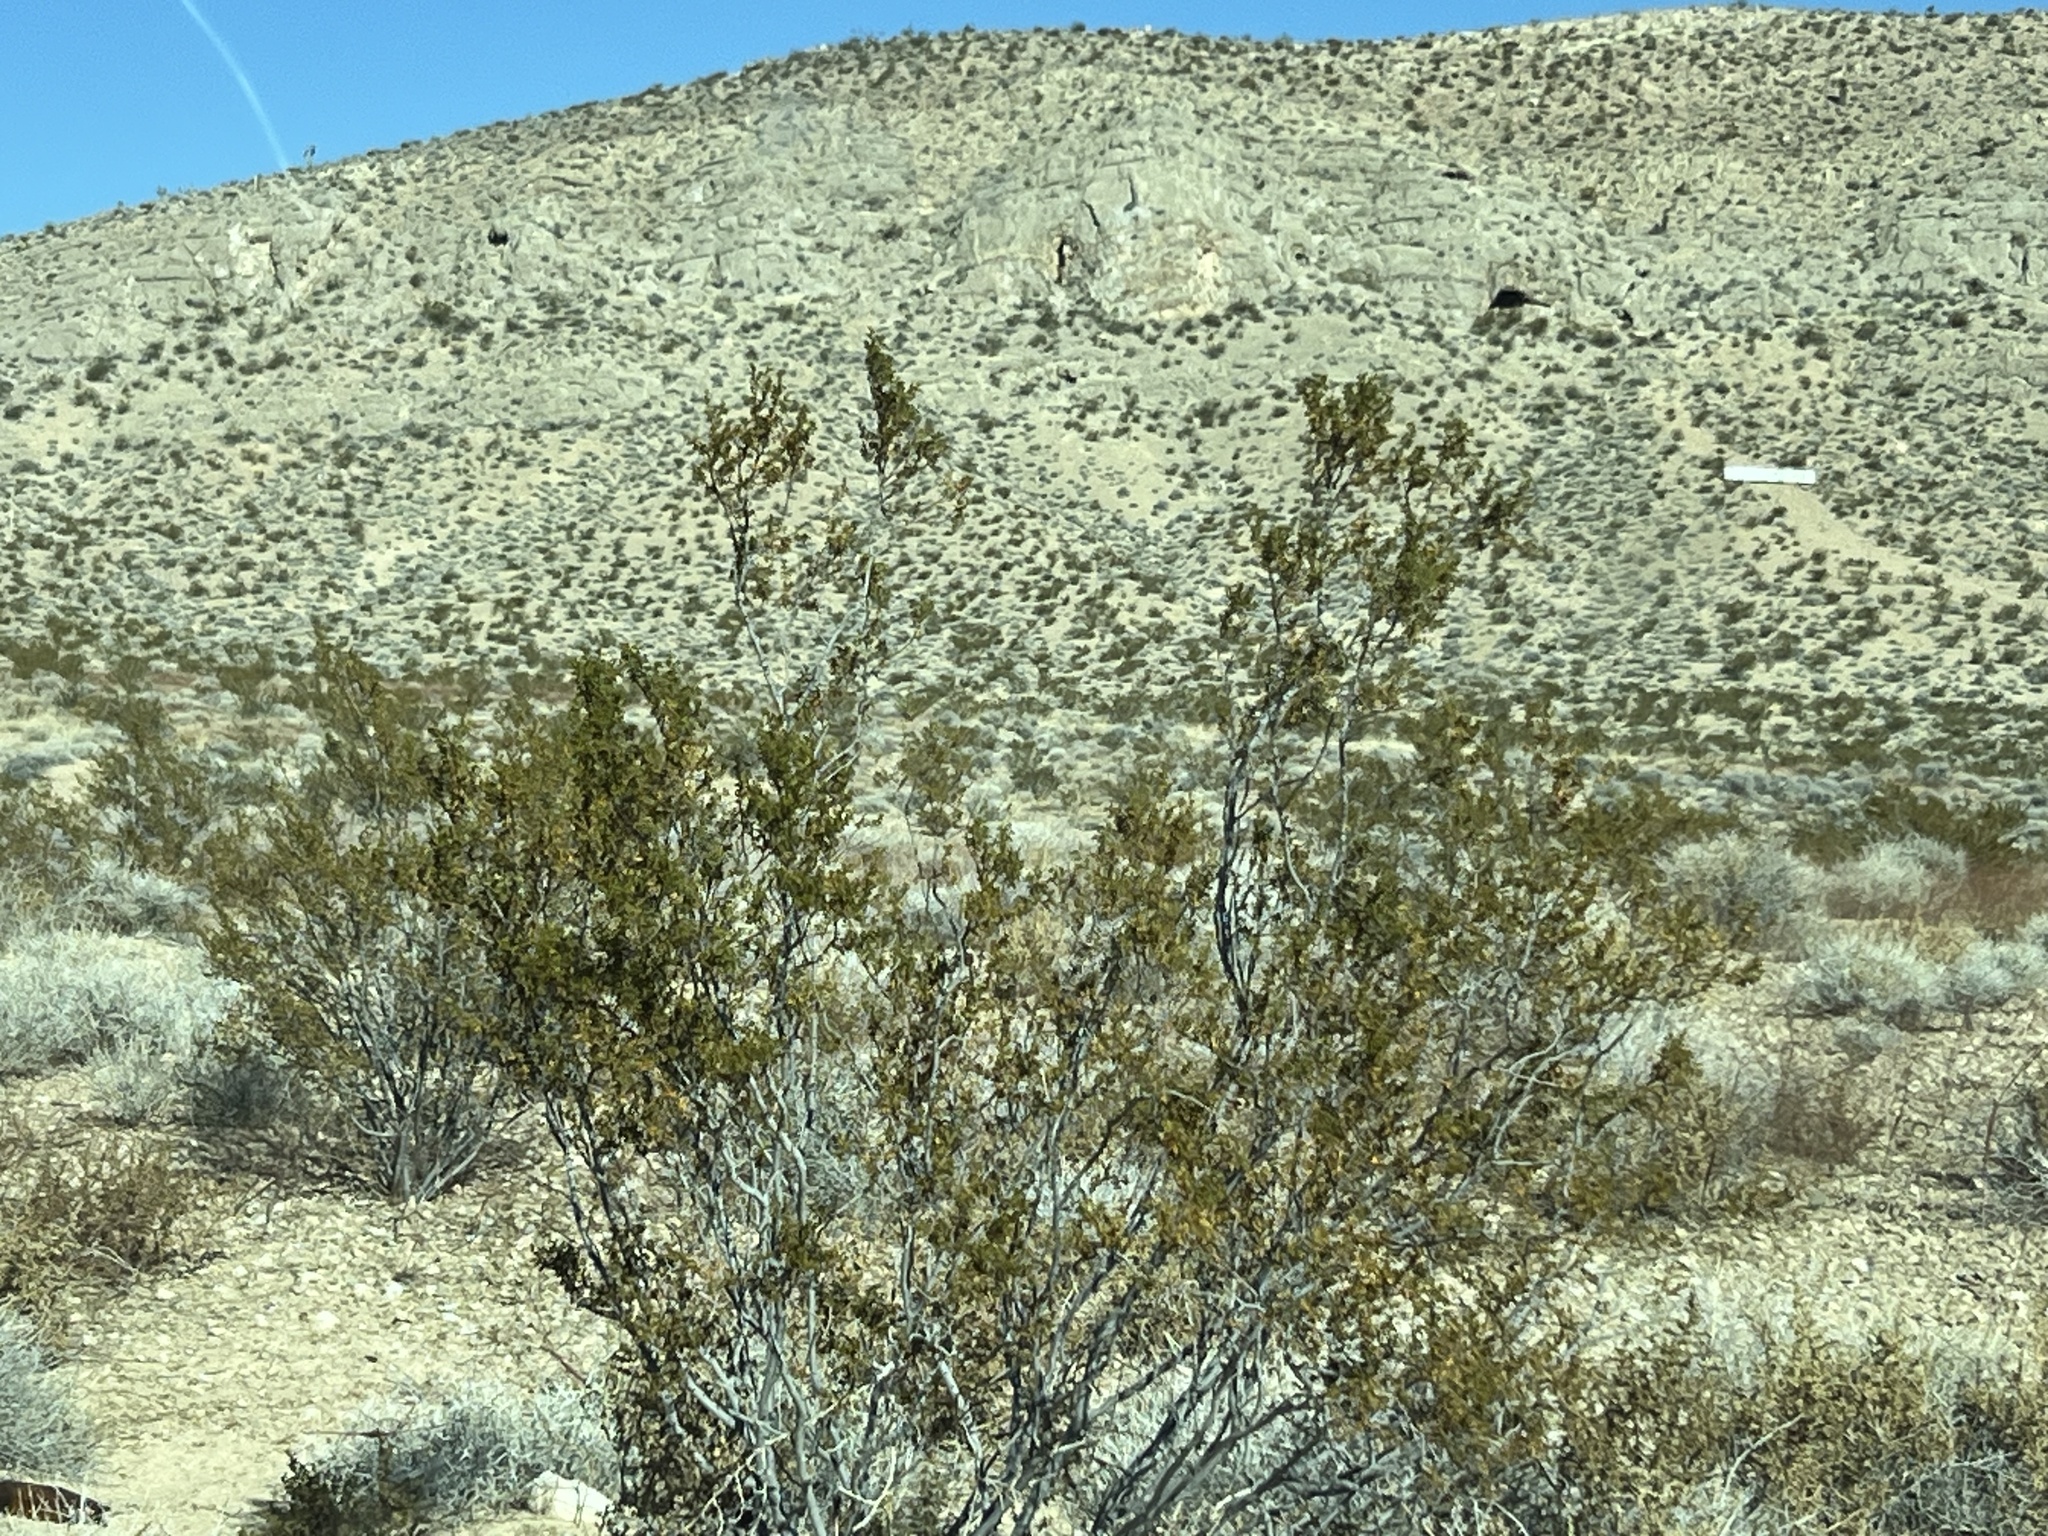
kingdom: Plantae
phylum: Tracheophyta
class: Magnoliopsida
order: Zygophyllales
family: Zygophyllaceae
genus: Larrea
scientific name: Larrea tridentata
